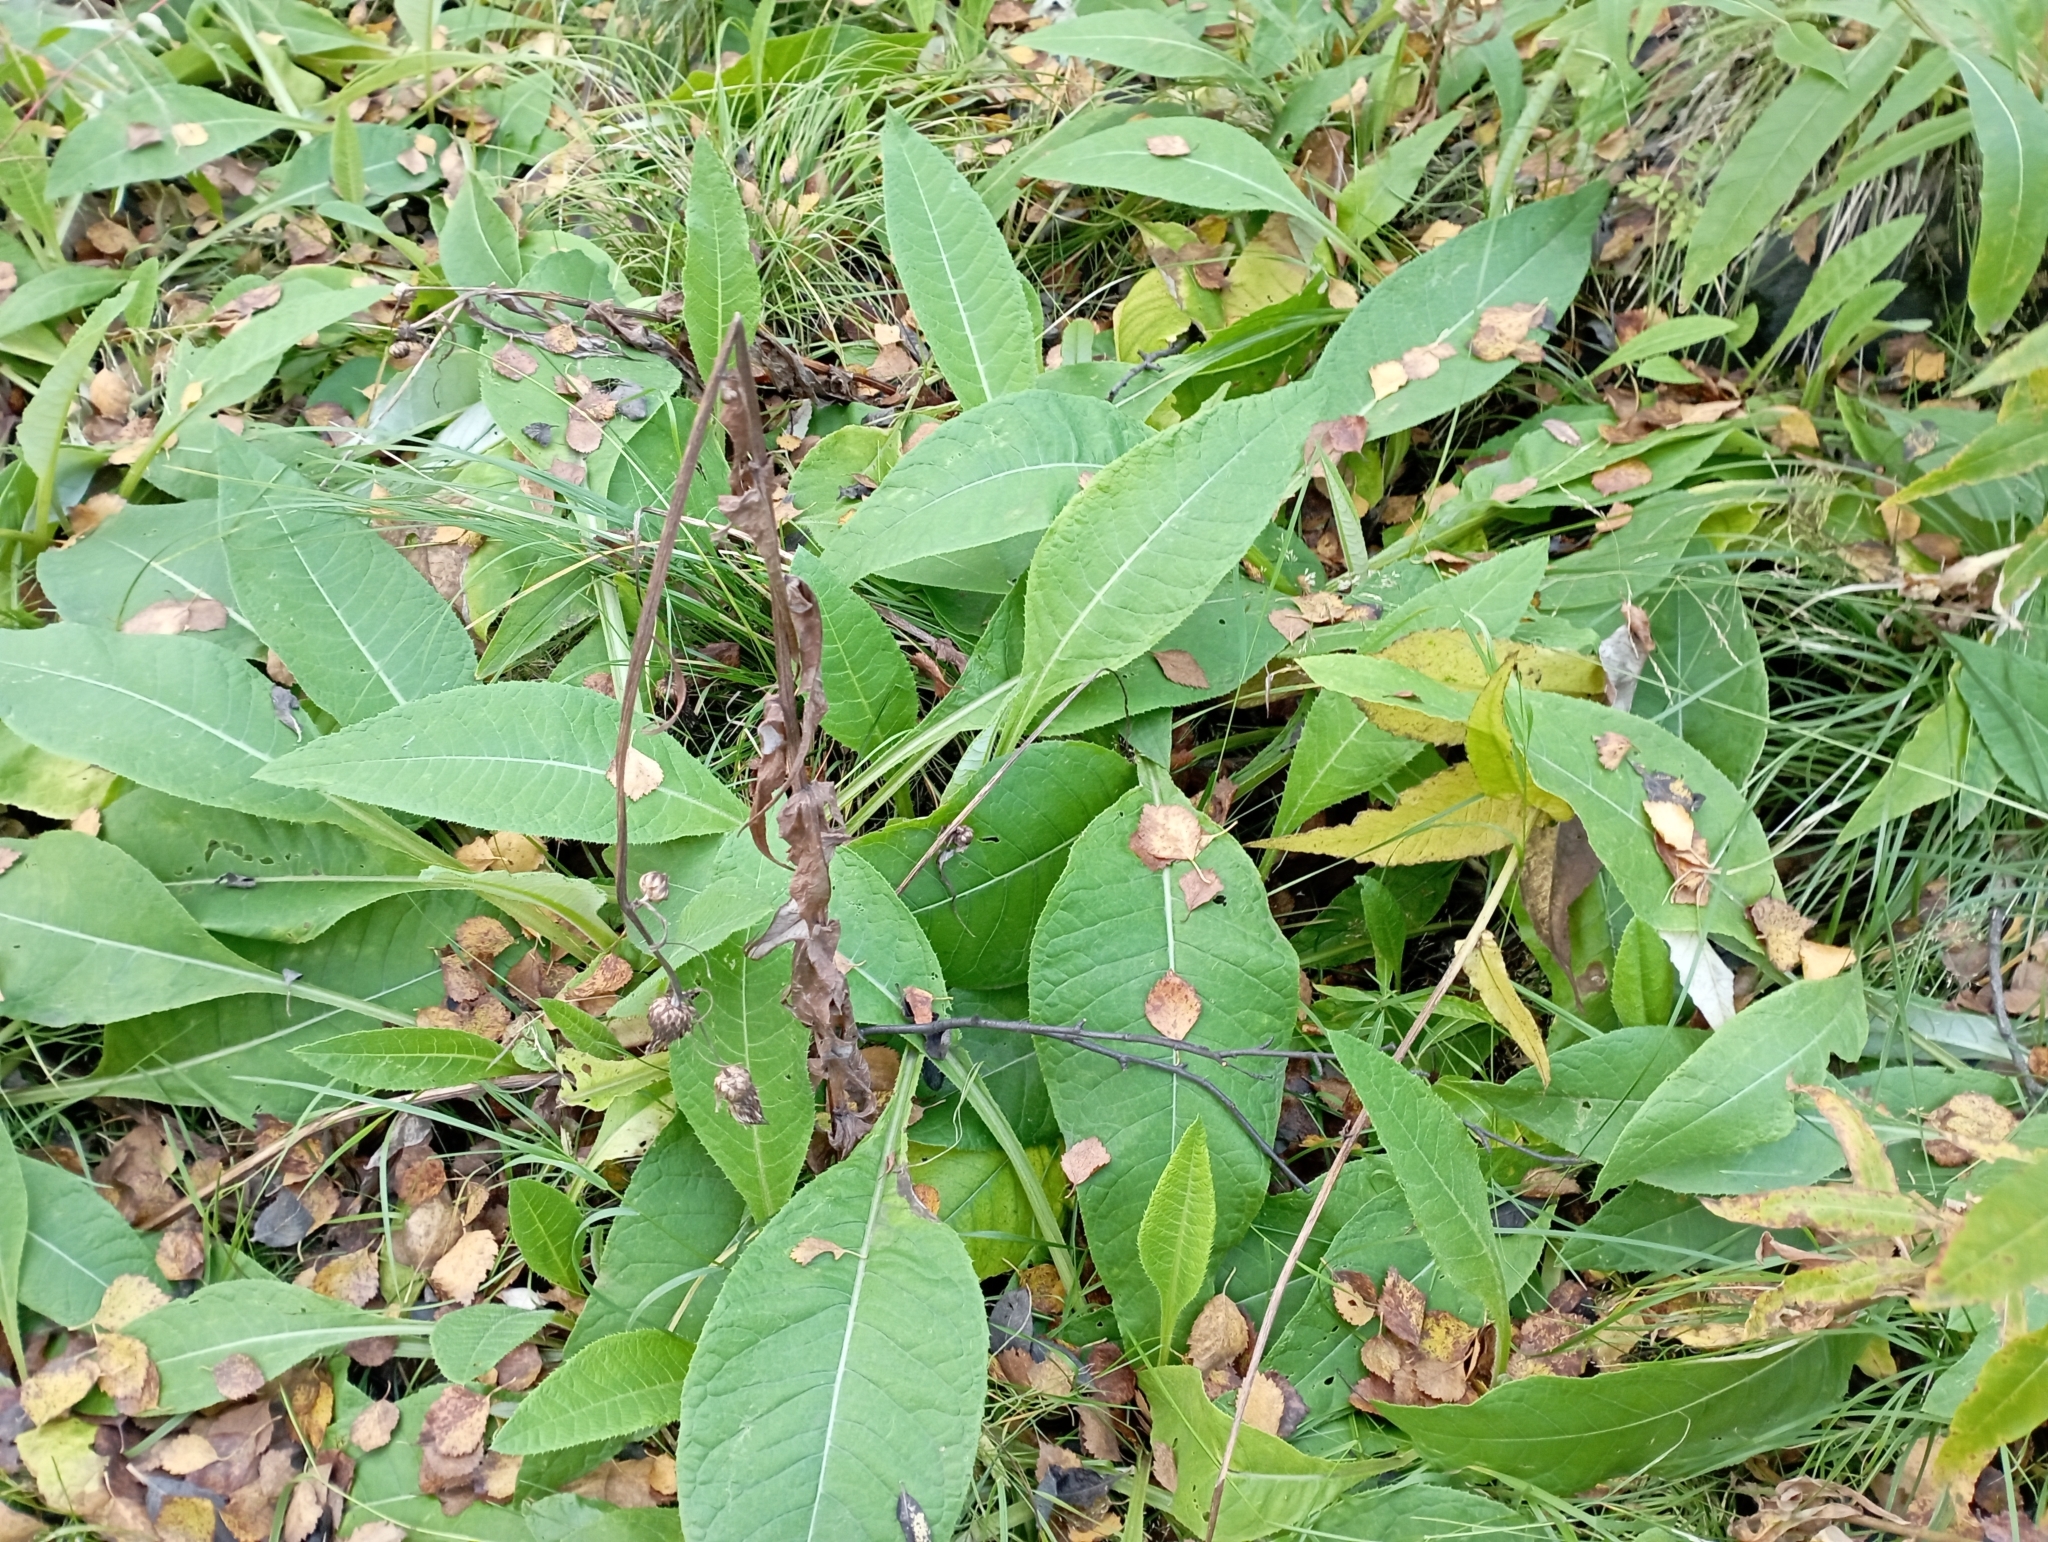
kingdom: Plantae
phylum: Tracheophyta
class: Magnoliopsida
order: Asterales
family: Asteraceae
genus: Cirsium
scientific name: Cirsium heterophyllum
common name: Melancholy thistle
